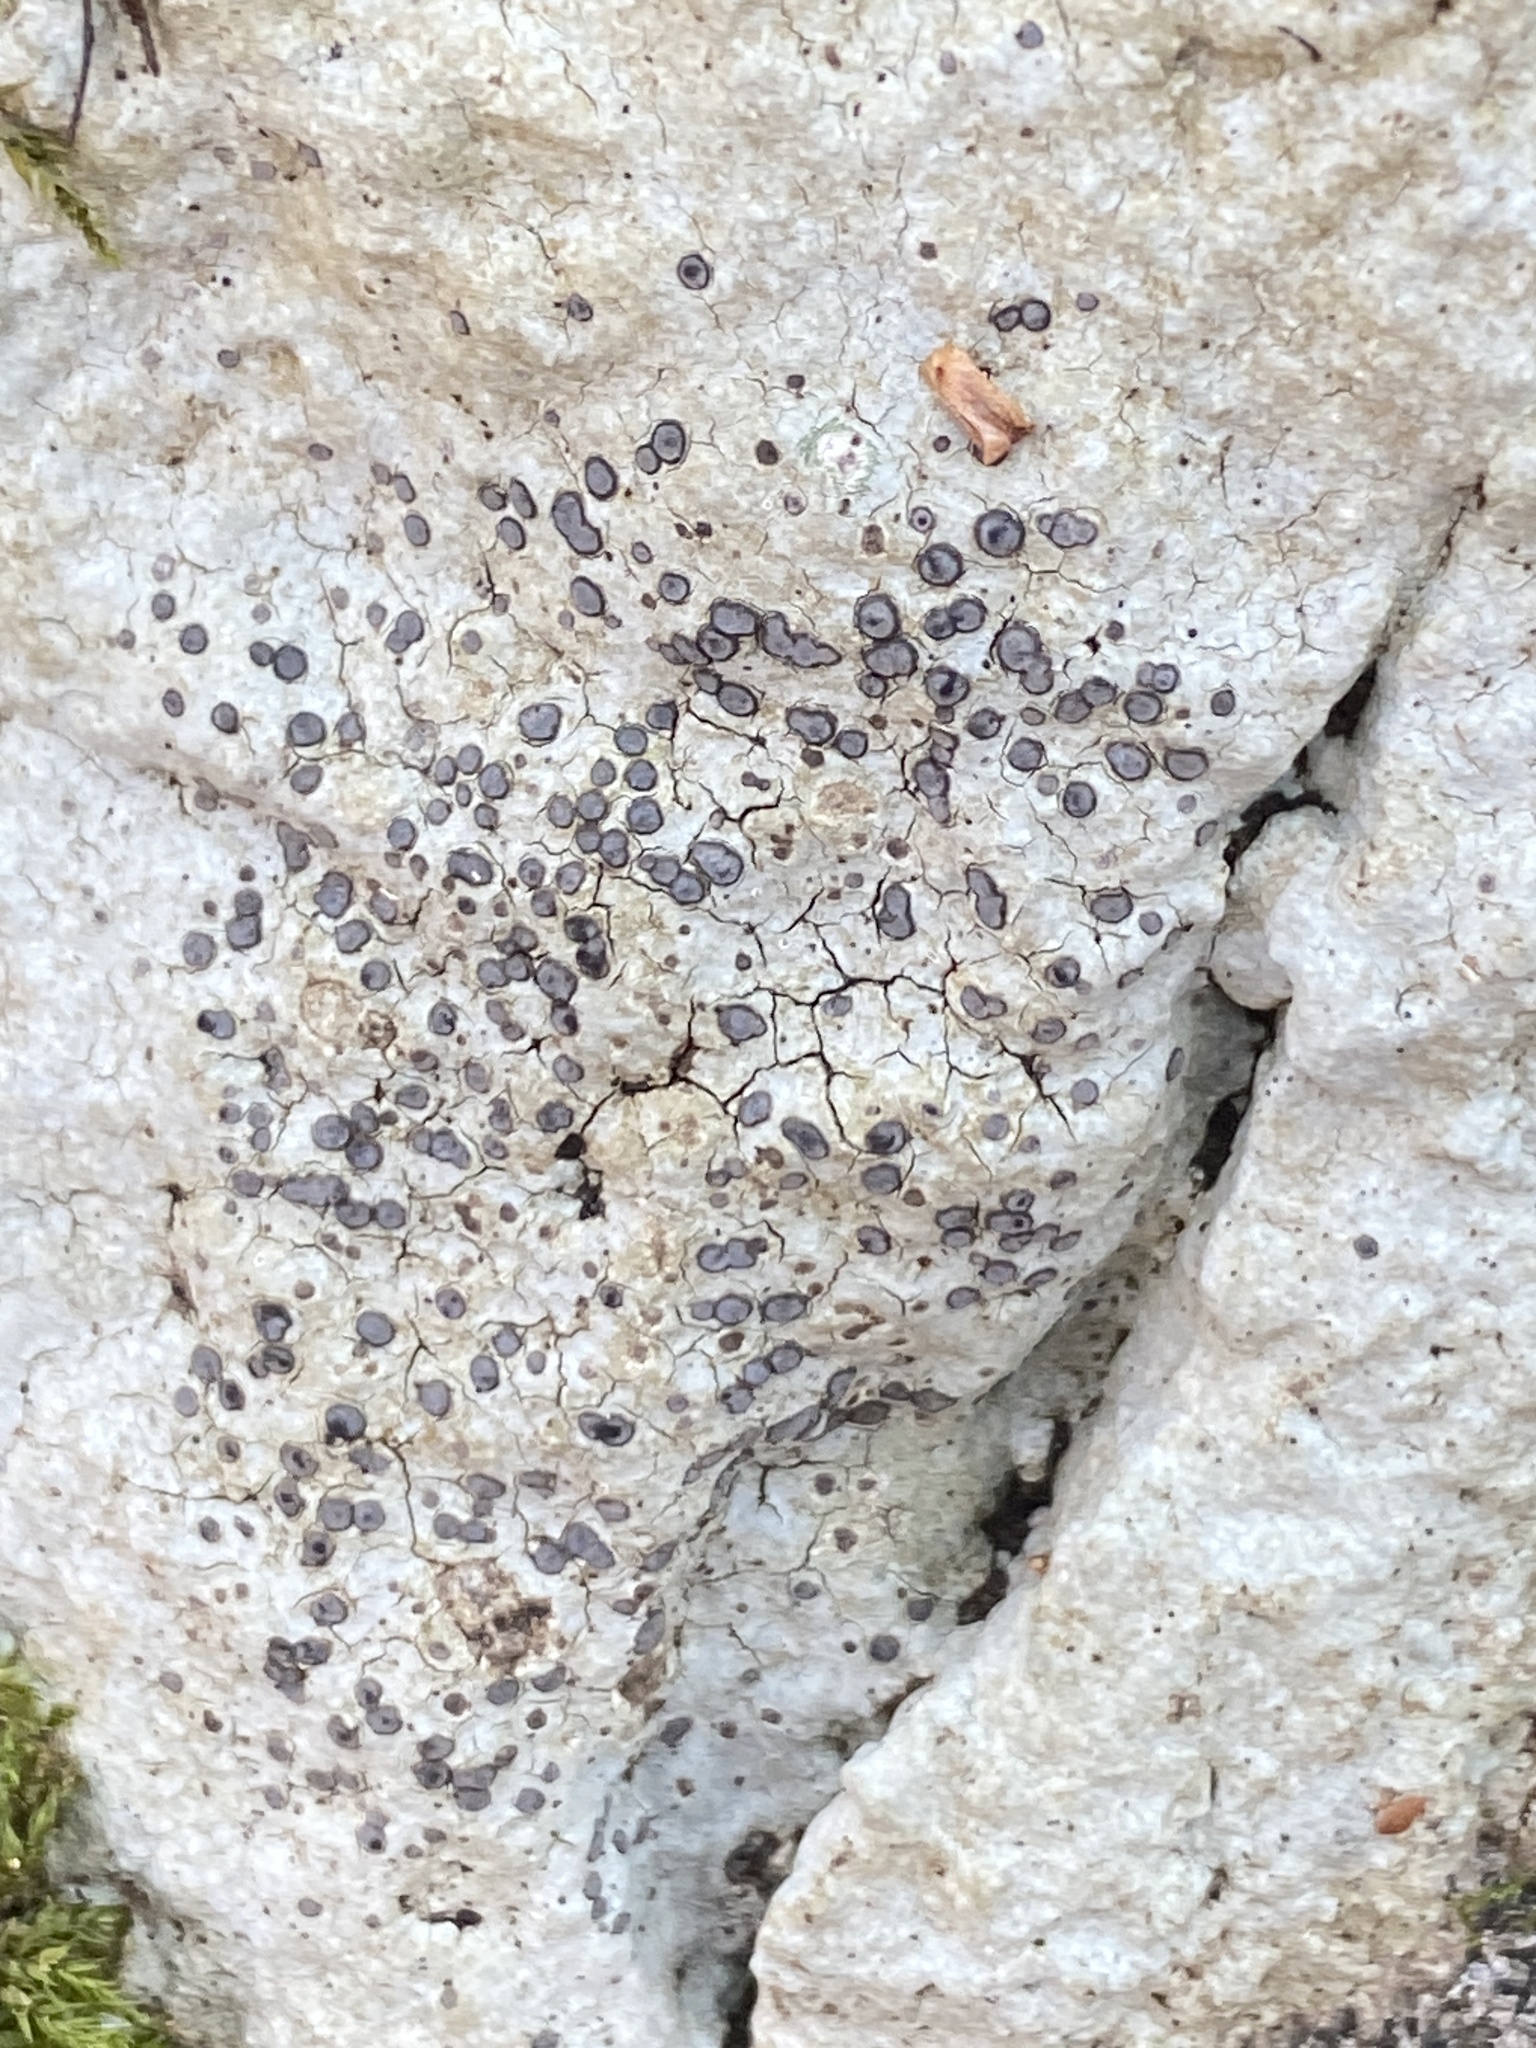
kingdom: Fungi
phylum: Ascomycota
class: Lecanoromycetes
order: Lecideales
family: Lecideaceae
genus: Porpidia
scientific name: Porpidia albocaerulescens
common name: Smokey-eyed boulder lichen
